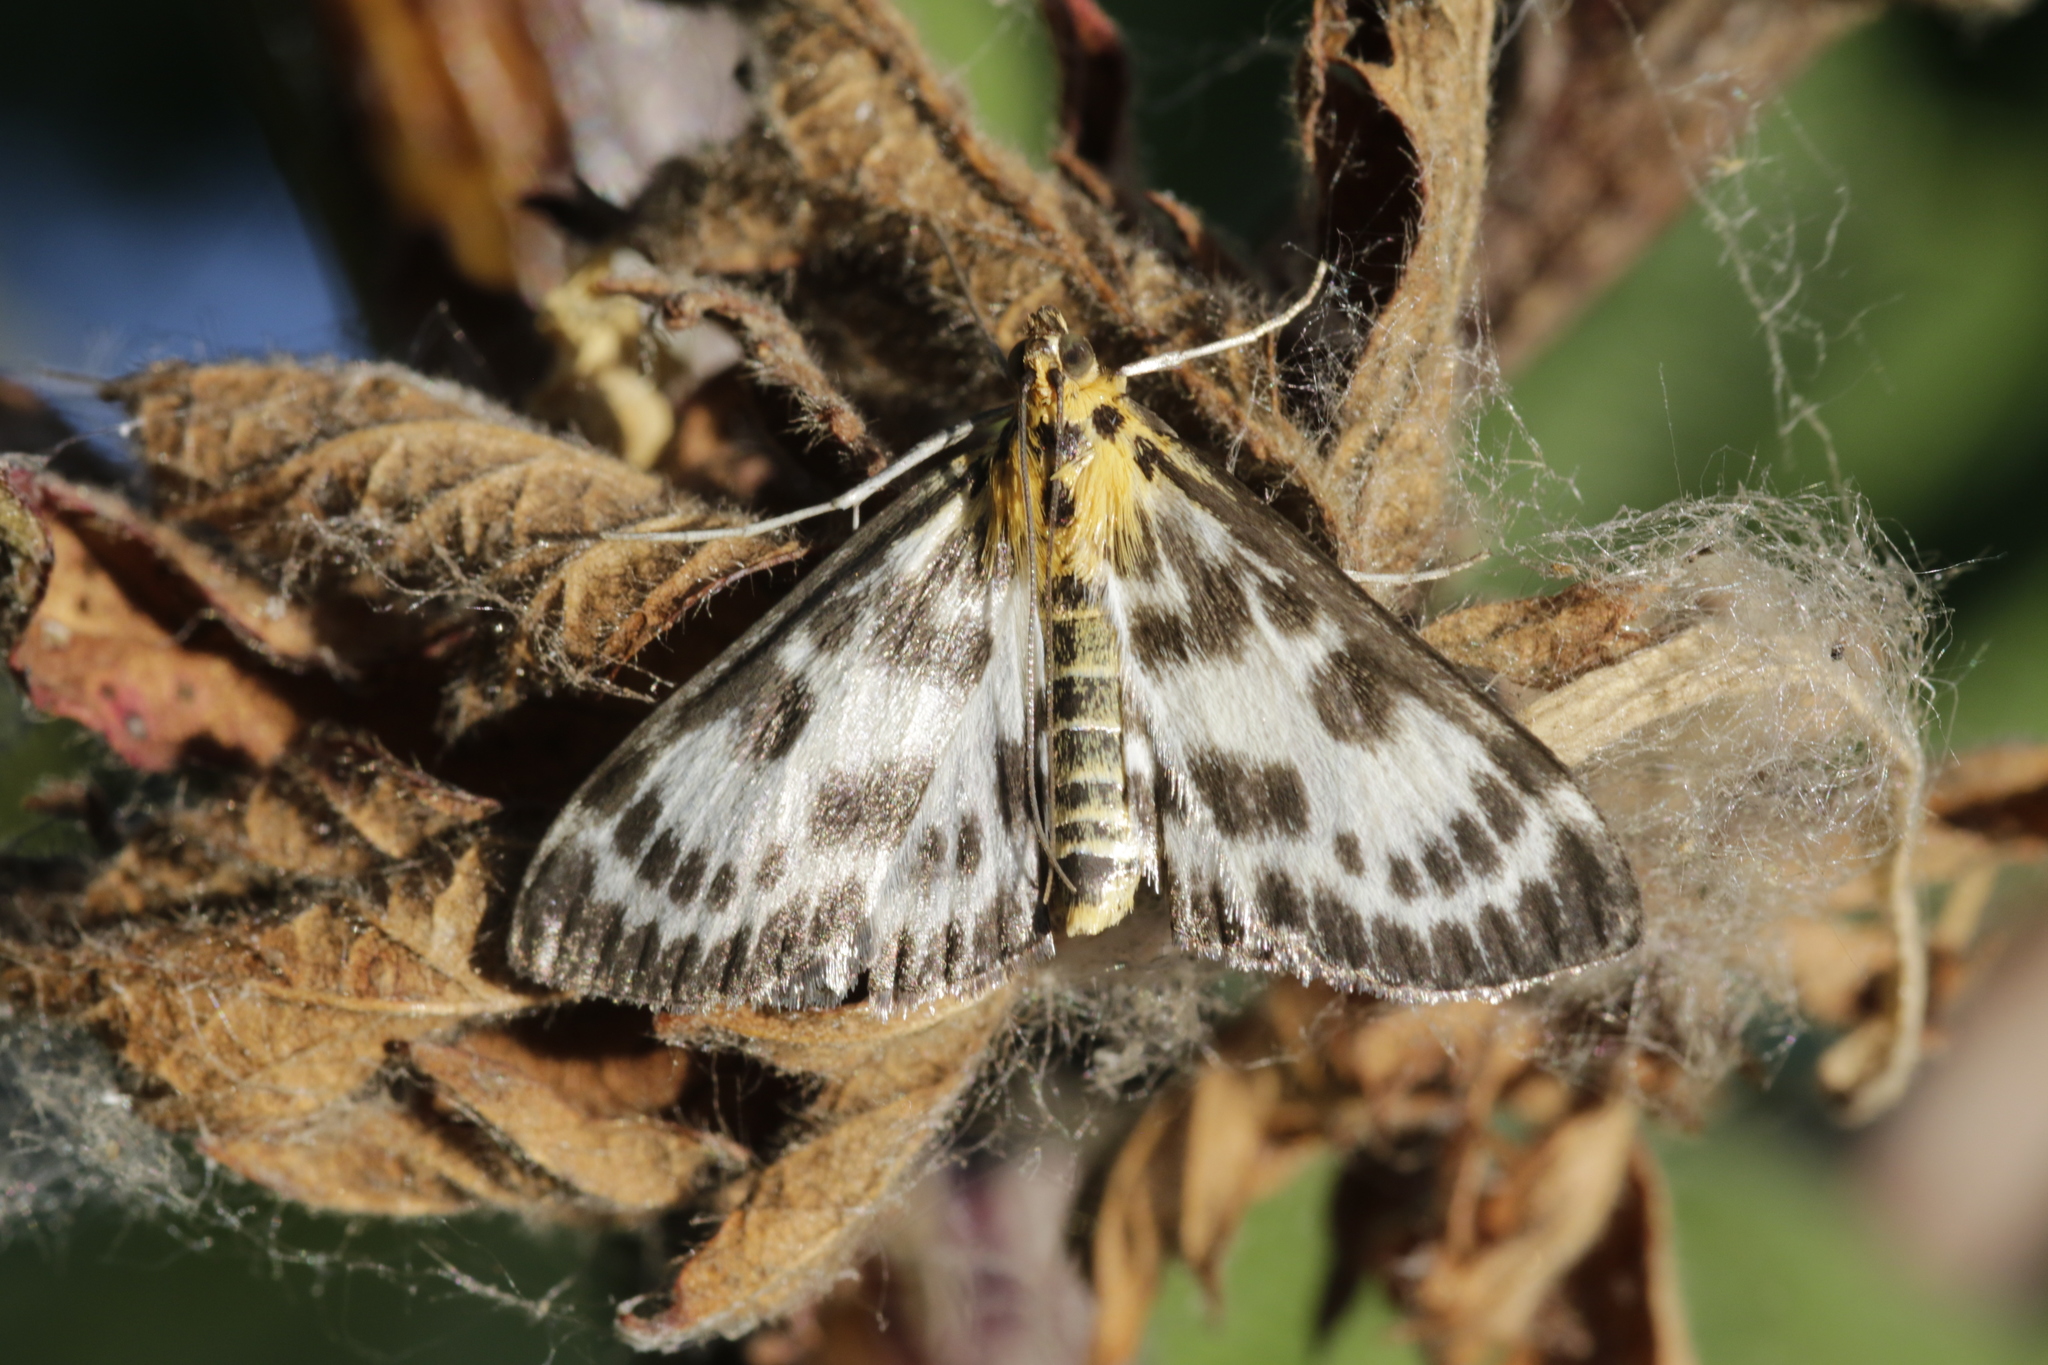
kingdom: Animalia
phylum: Arthropoda
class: Insecta
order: Lepidoptera
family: Crambidae
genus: Anania
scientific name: Anania hortulata
